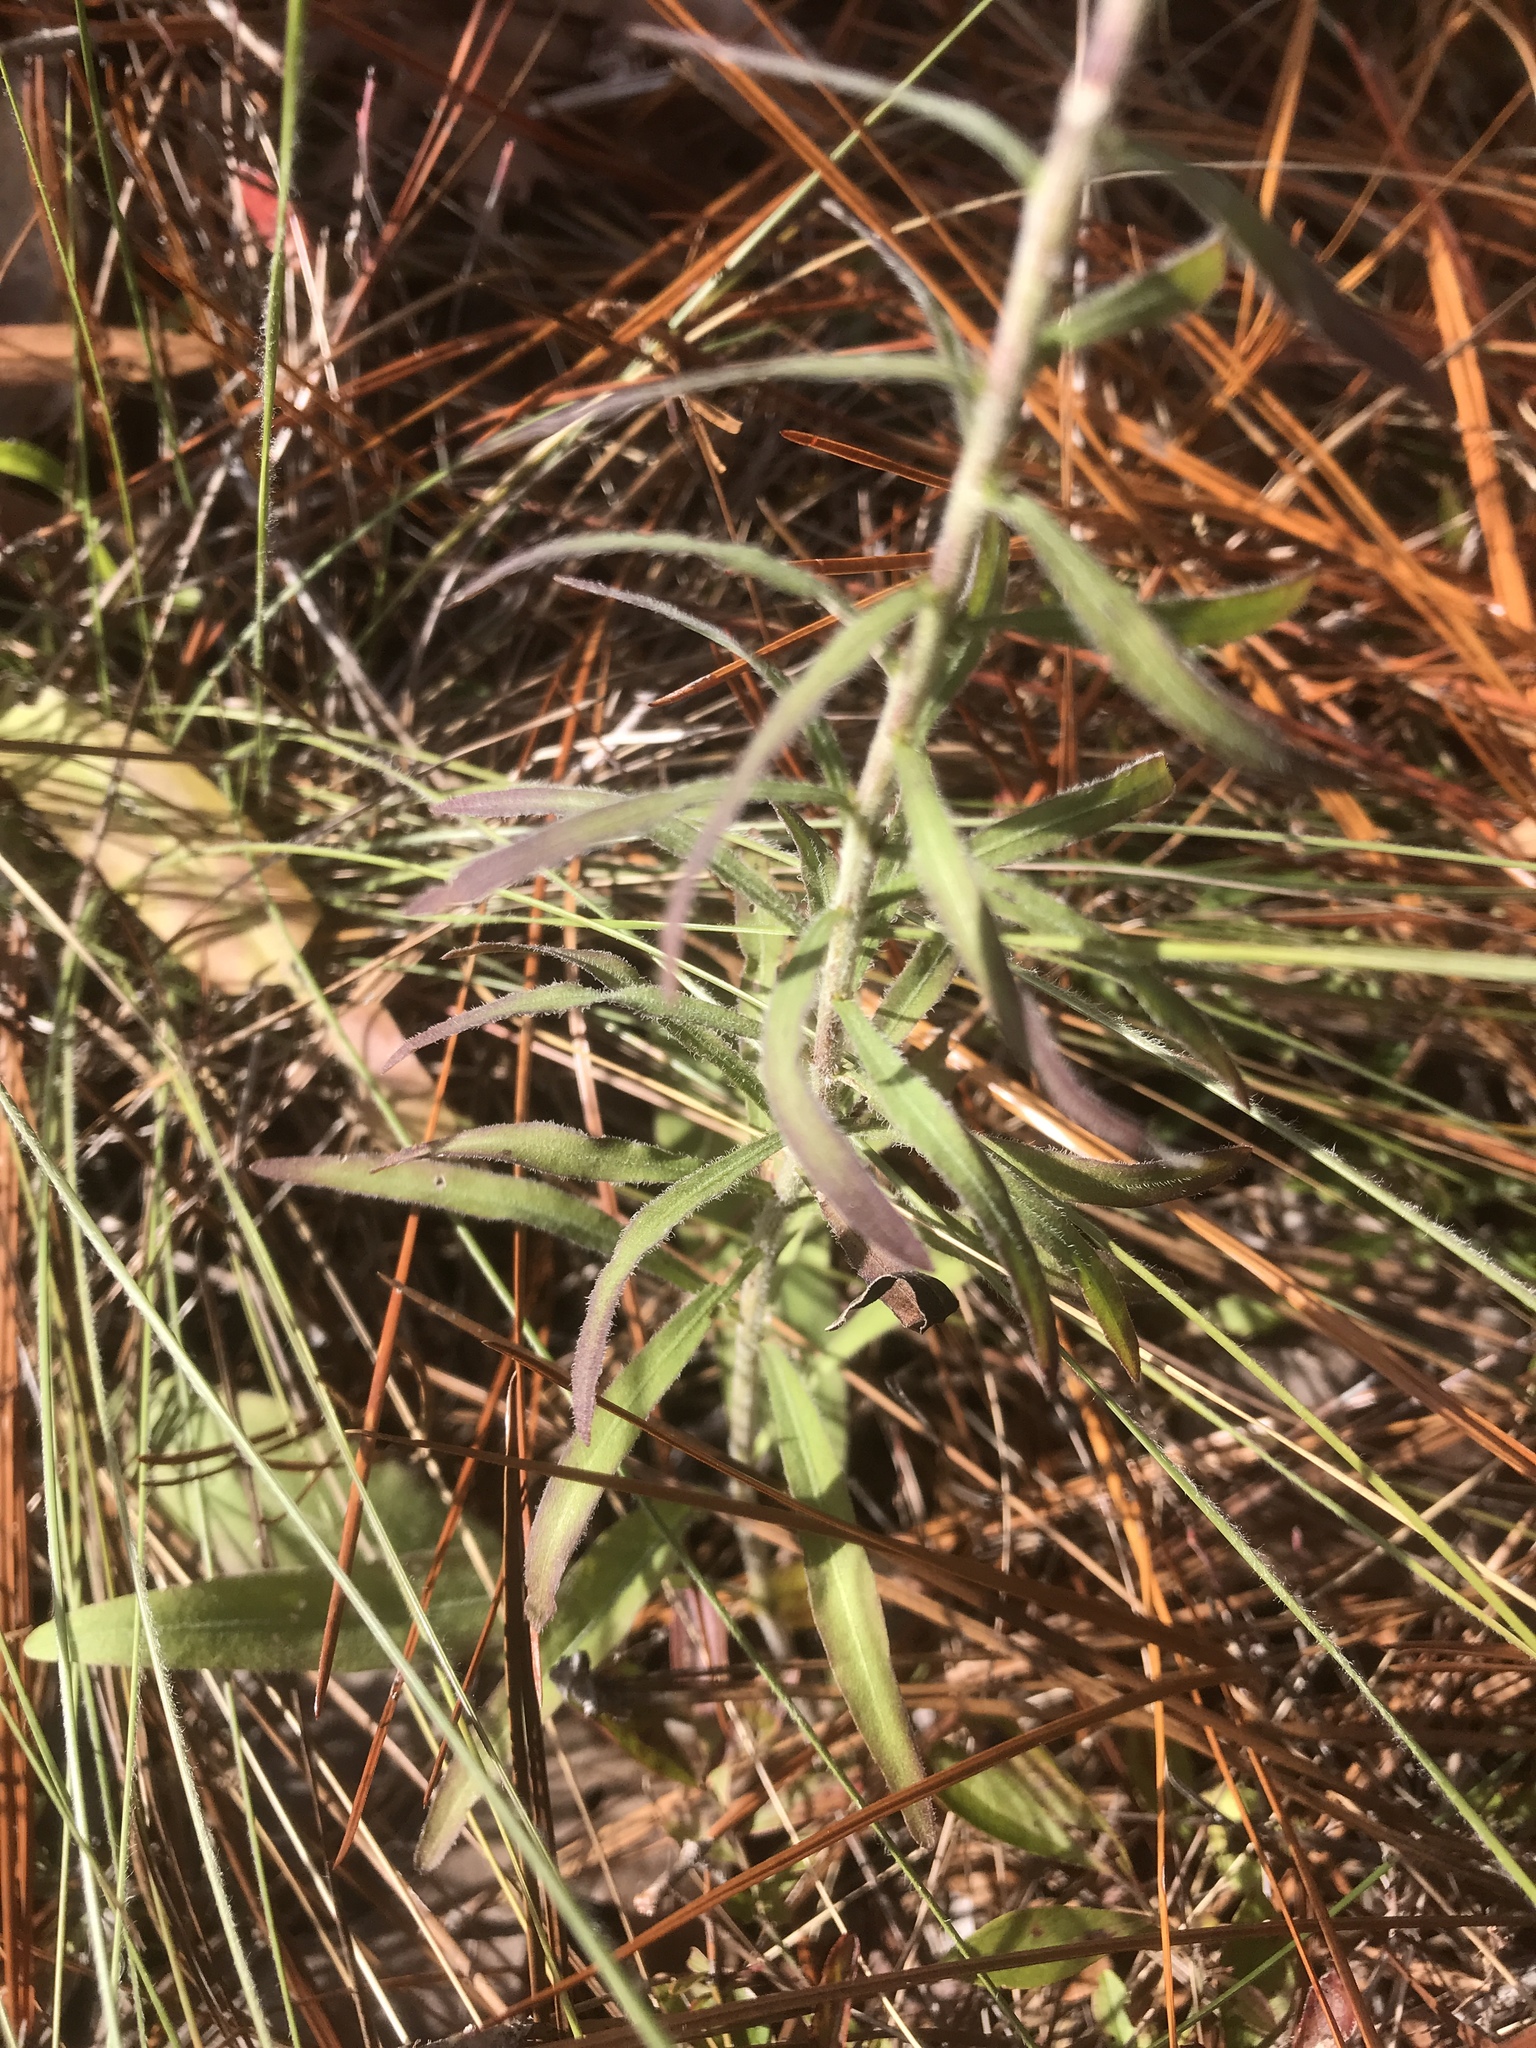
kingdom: Plantae
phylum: Tracheophyta
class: Magnoliopsida
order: Asterales
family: Asteraceae
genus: Liatris
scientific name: Liatris squarrulosa
